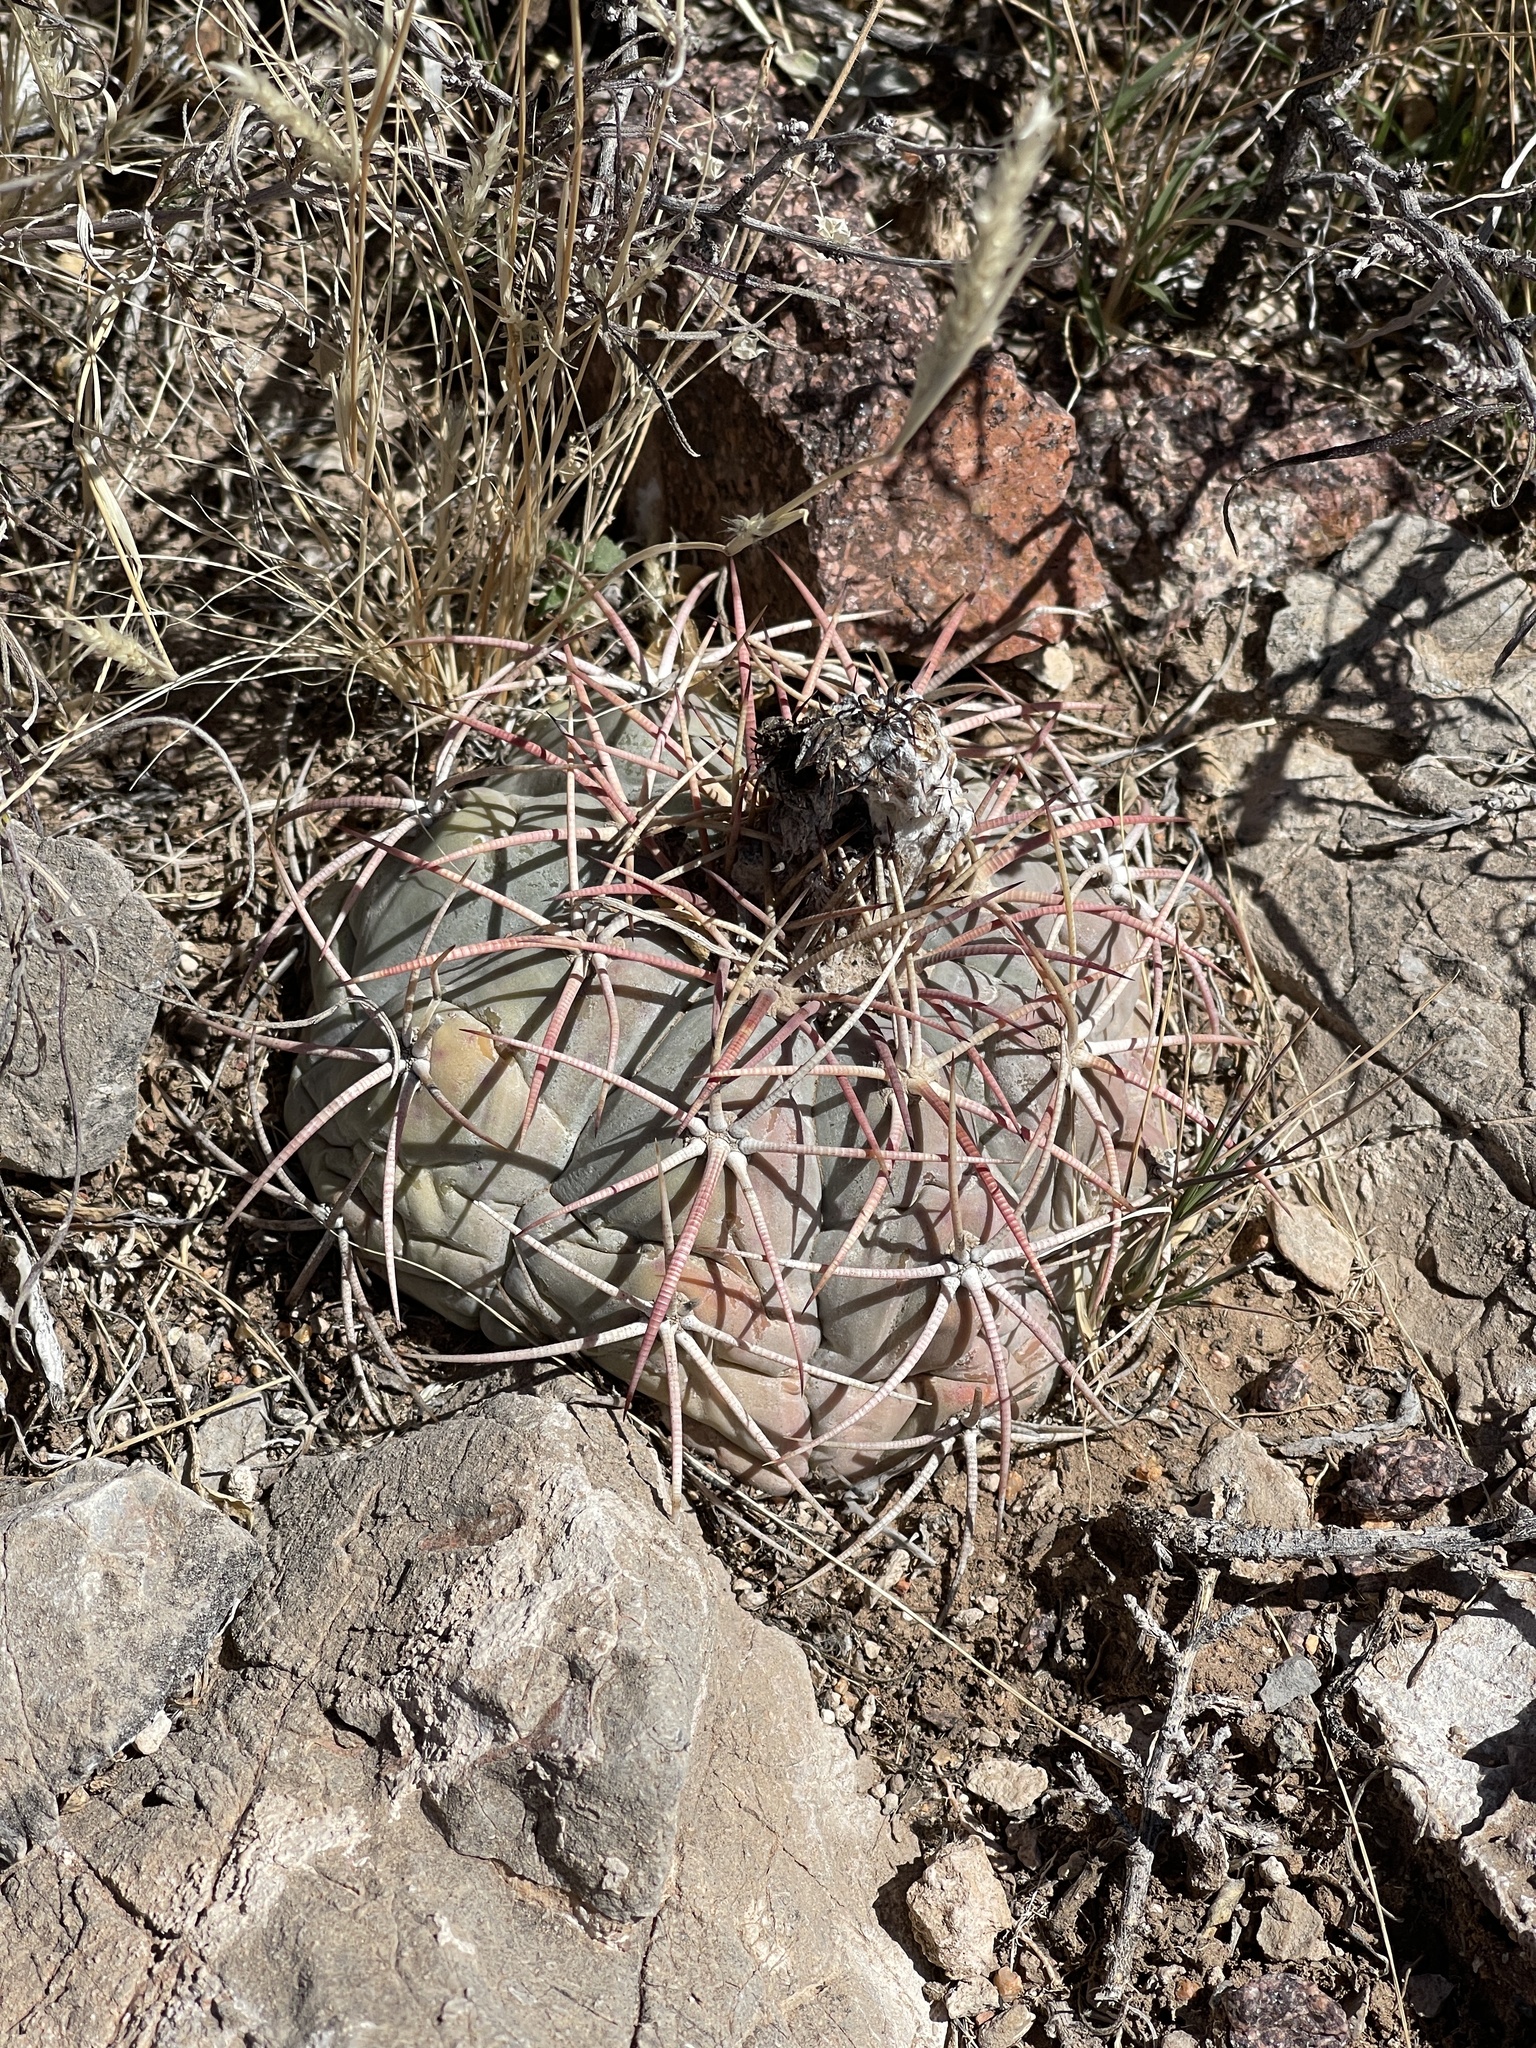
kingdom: Plantae
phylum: Tracheophyta
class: Magnoliopsida
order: Caryophyllales
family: Cactaceae
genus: Echinocactus
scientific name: Echinocactus horizonthalonius
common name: Devilshead
